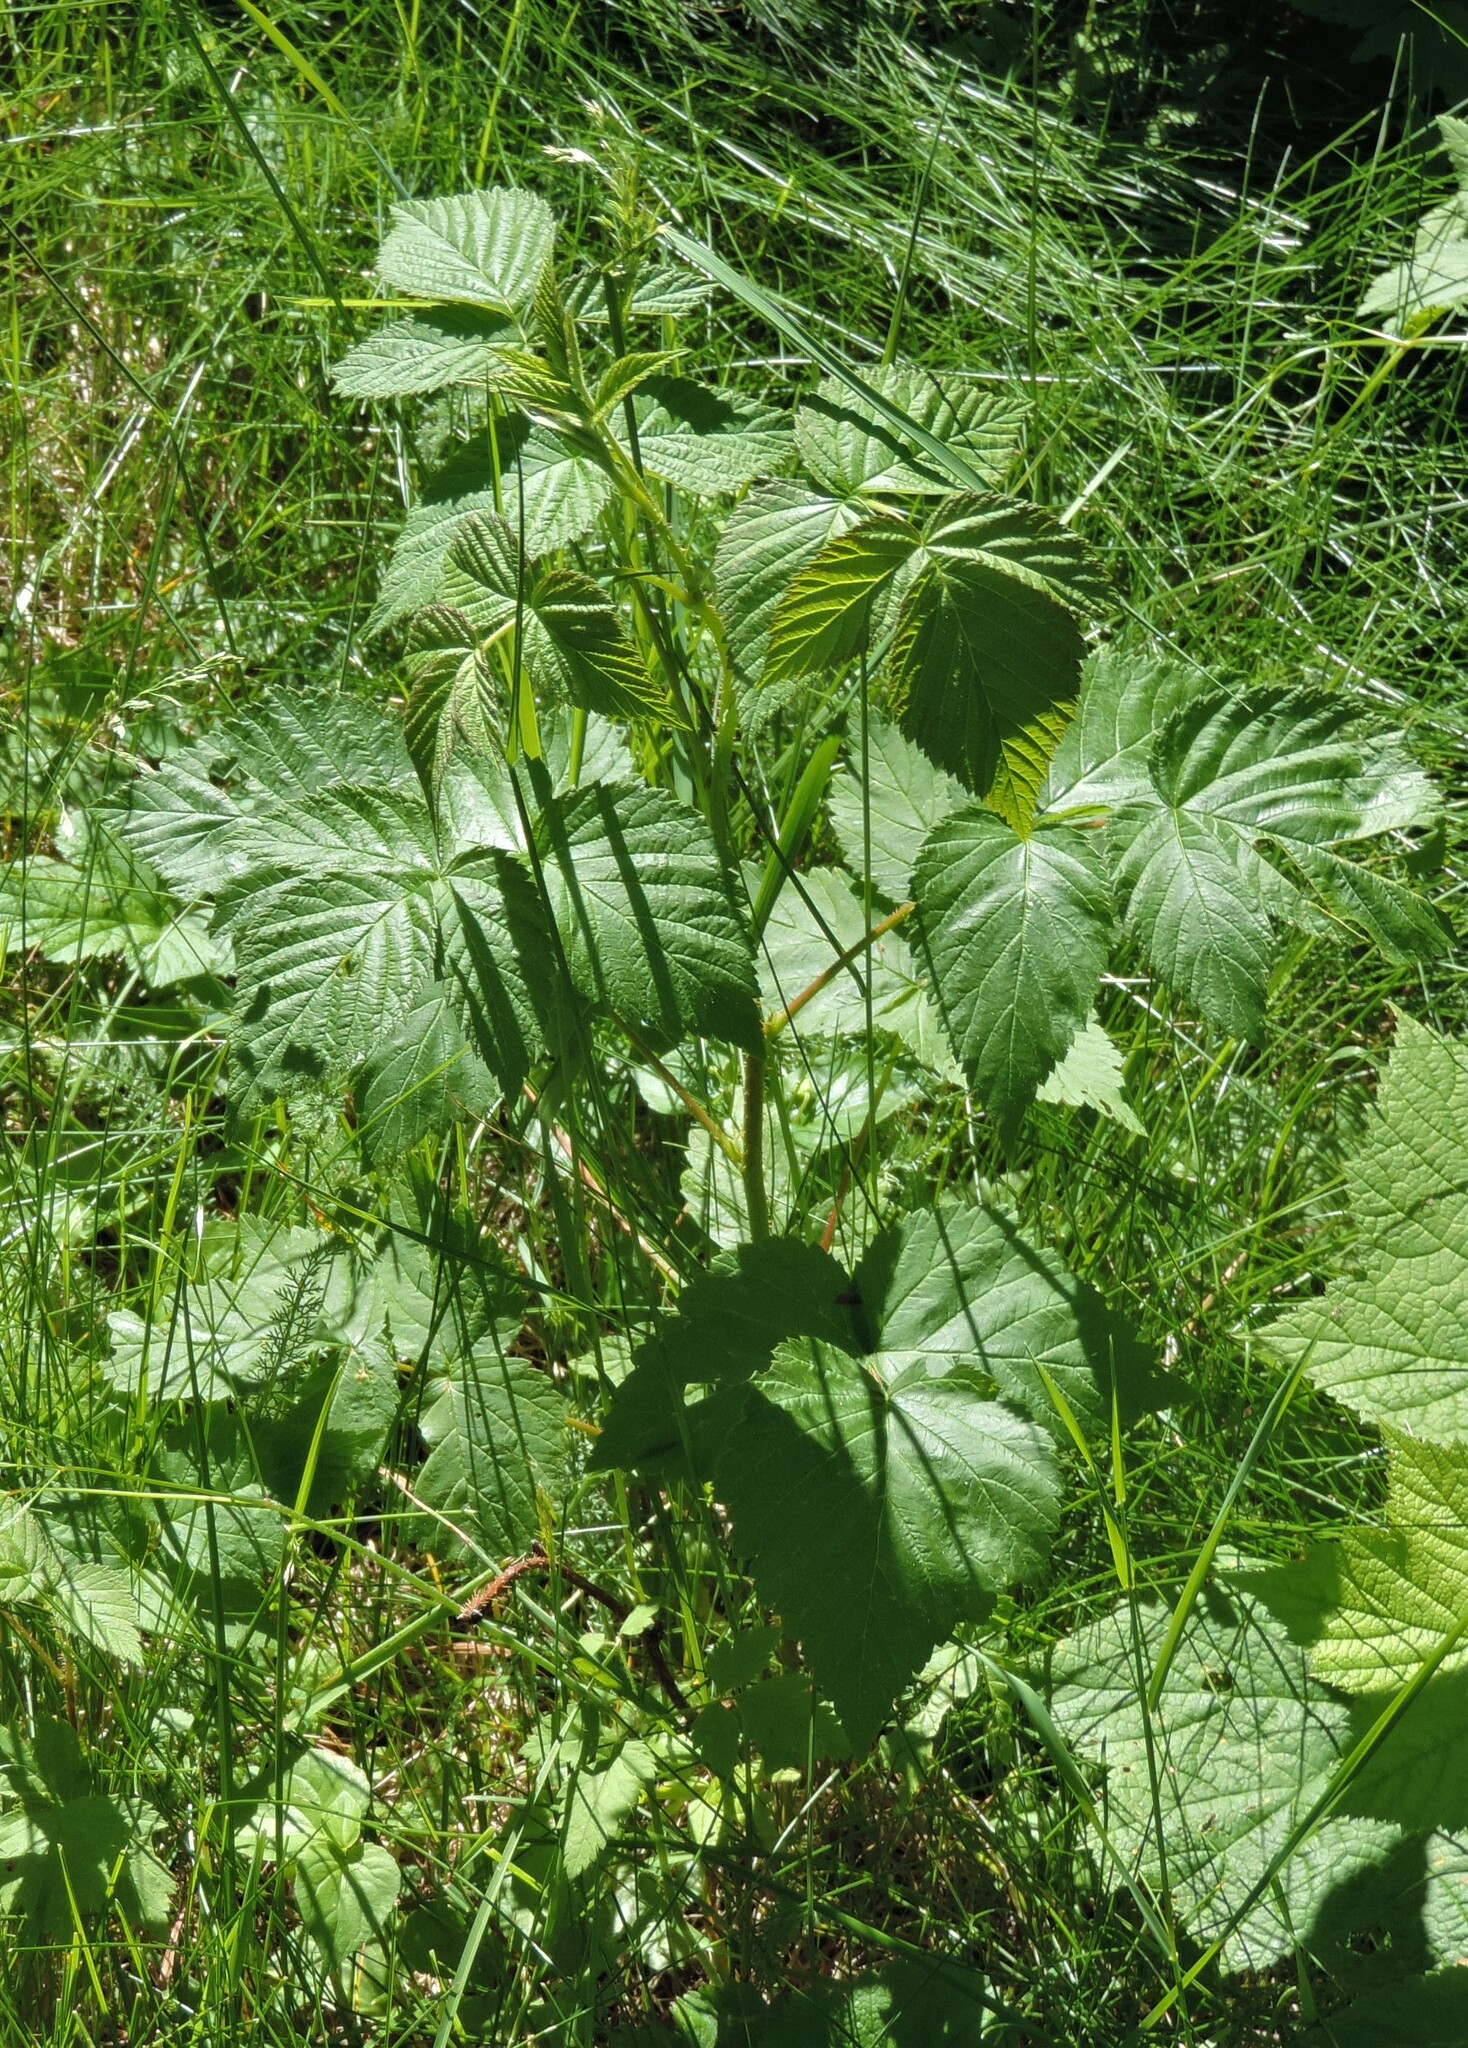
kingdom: Plantae
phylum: Tracheophyta
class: Magnoliopsida
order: Rosales
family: Rosaceae
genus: Rubus
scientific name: Rubus idaeus
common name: Raspberry
